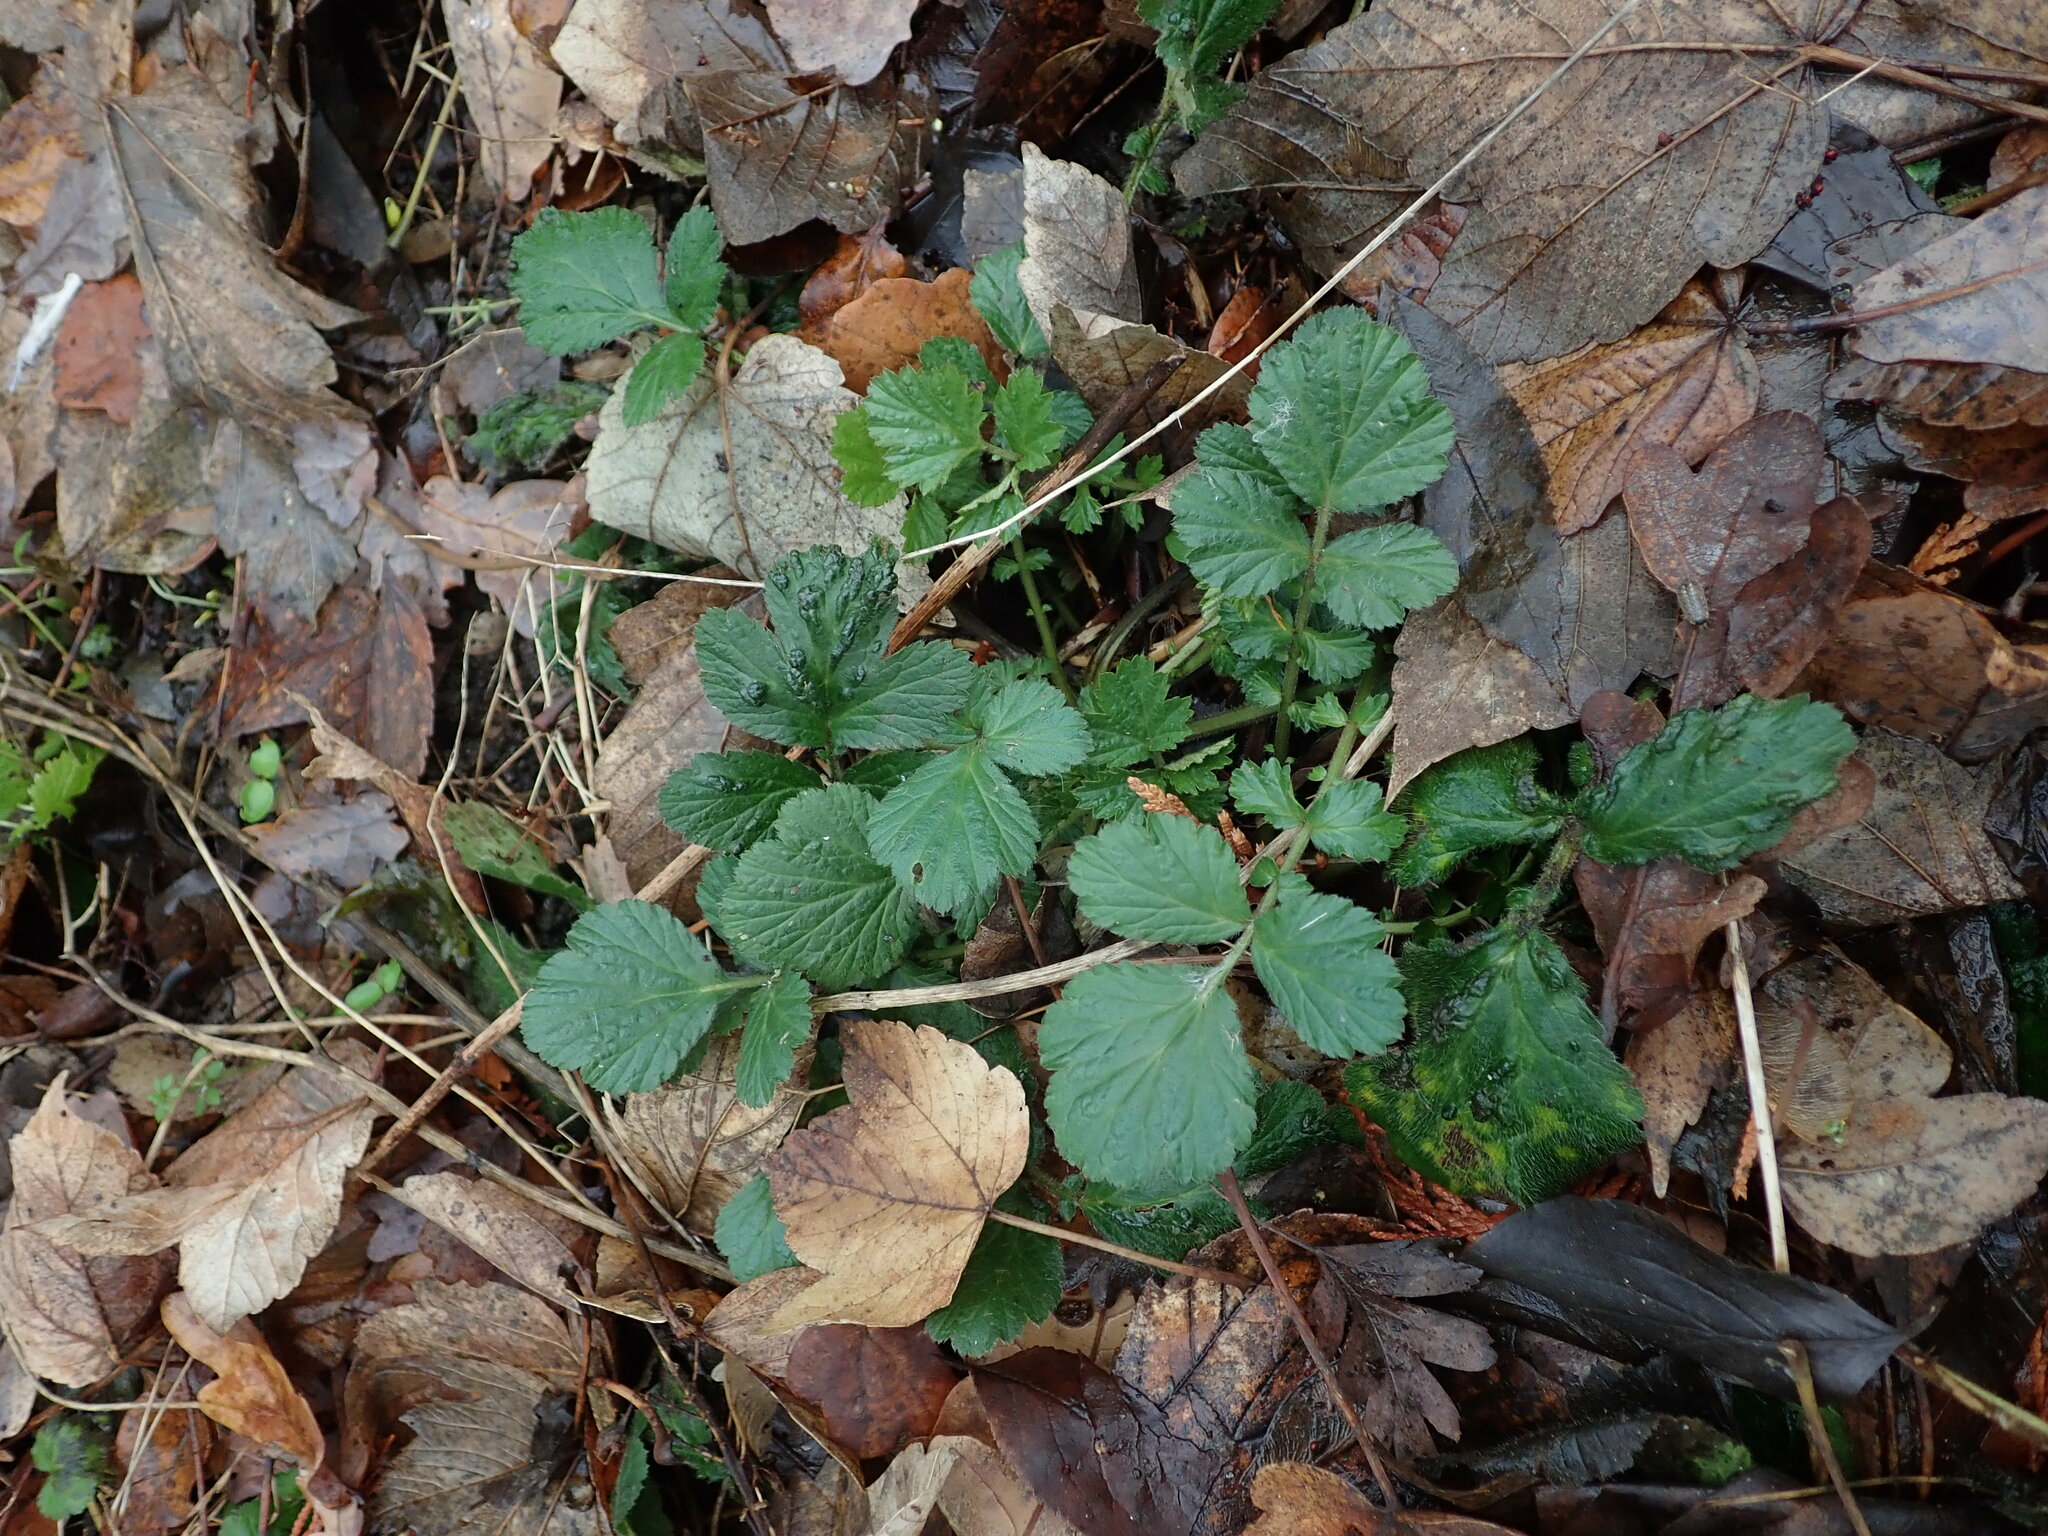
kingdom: Plantae
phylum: Tracheophyta
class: Magnoliopsida
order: Rosales
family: Rosaceae
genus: Geum
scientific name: Geum urbanum
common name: Wood avens
